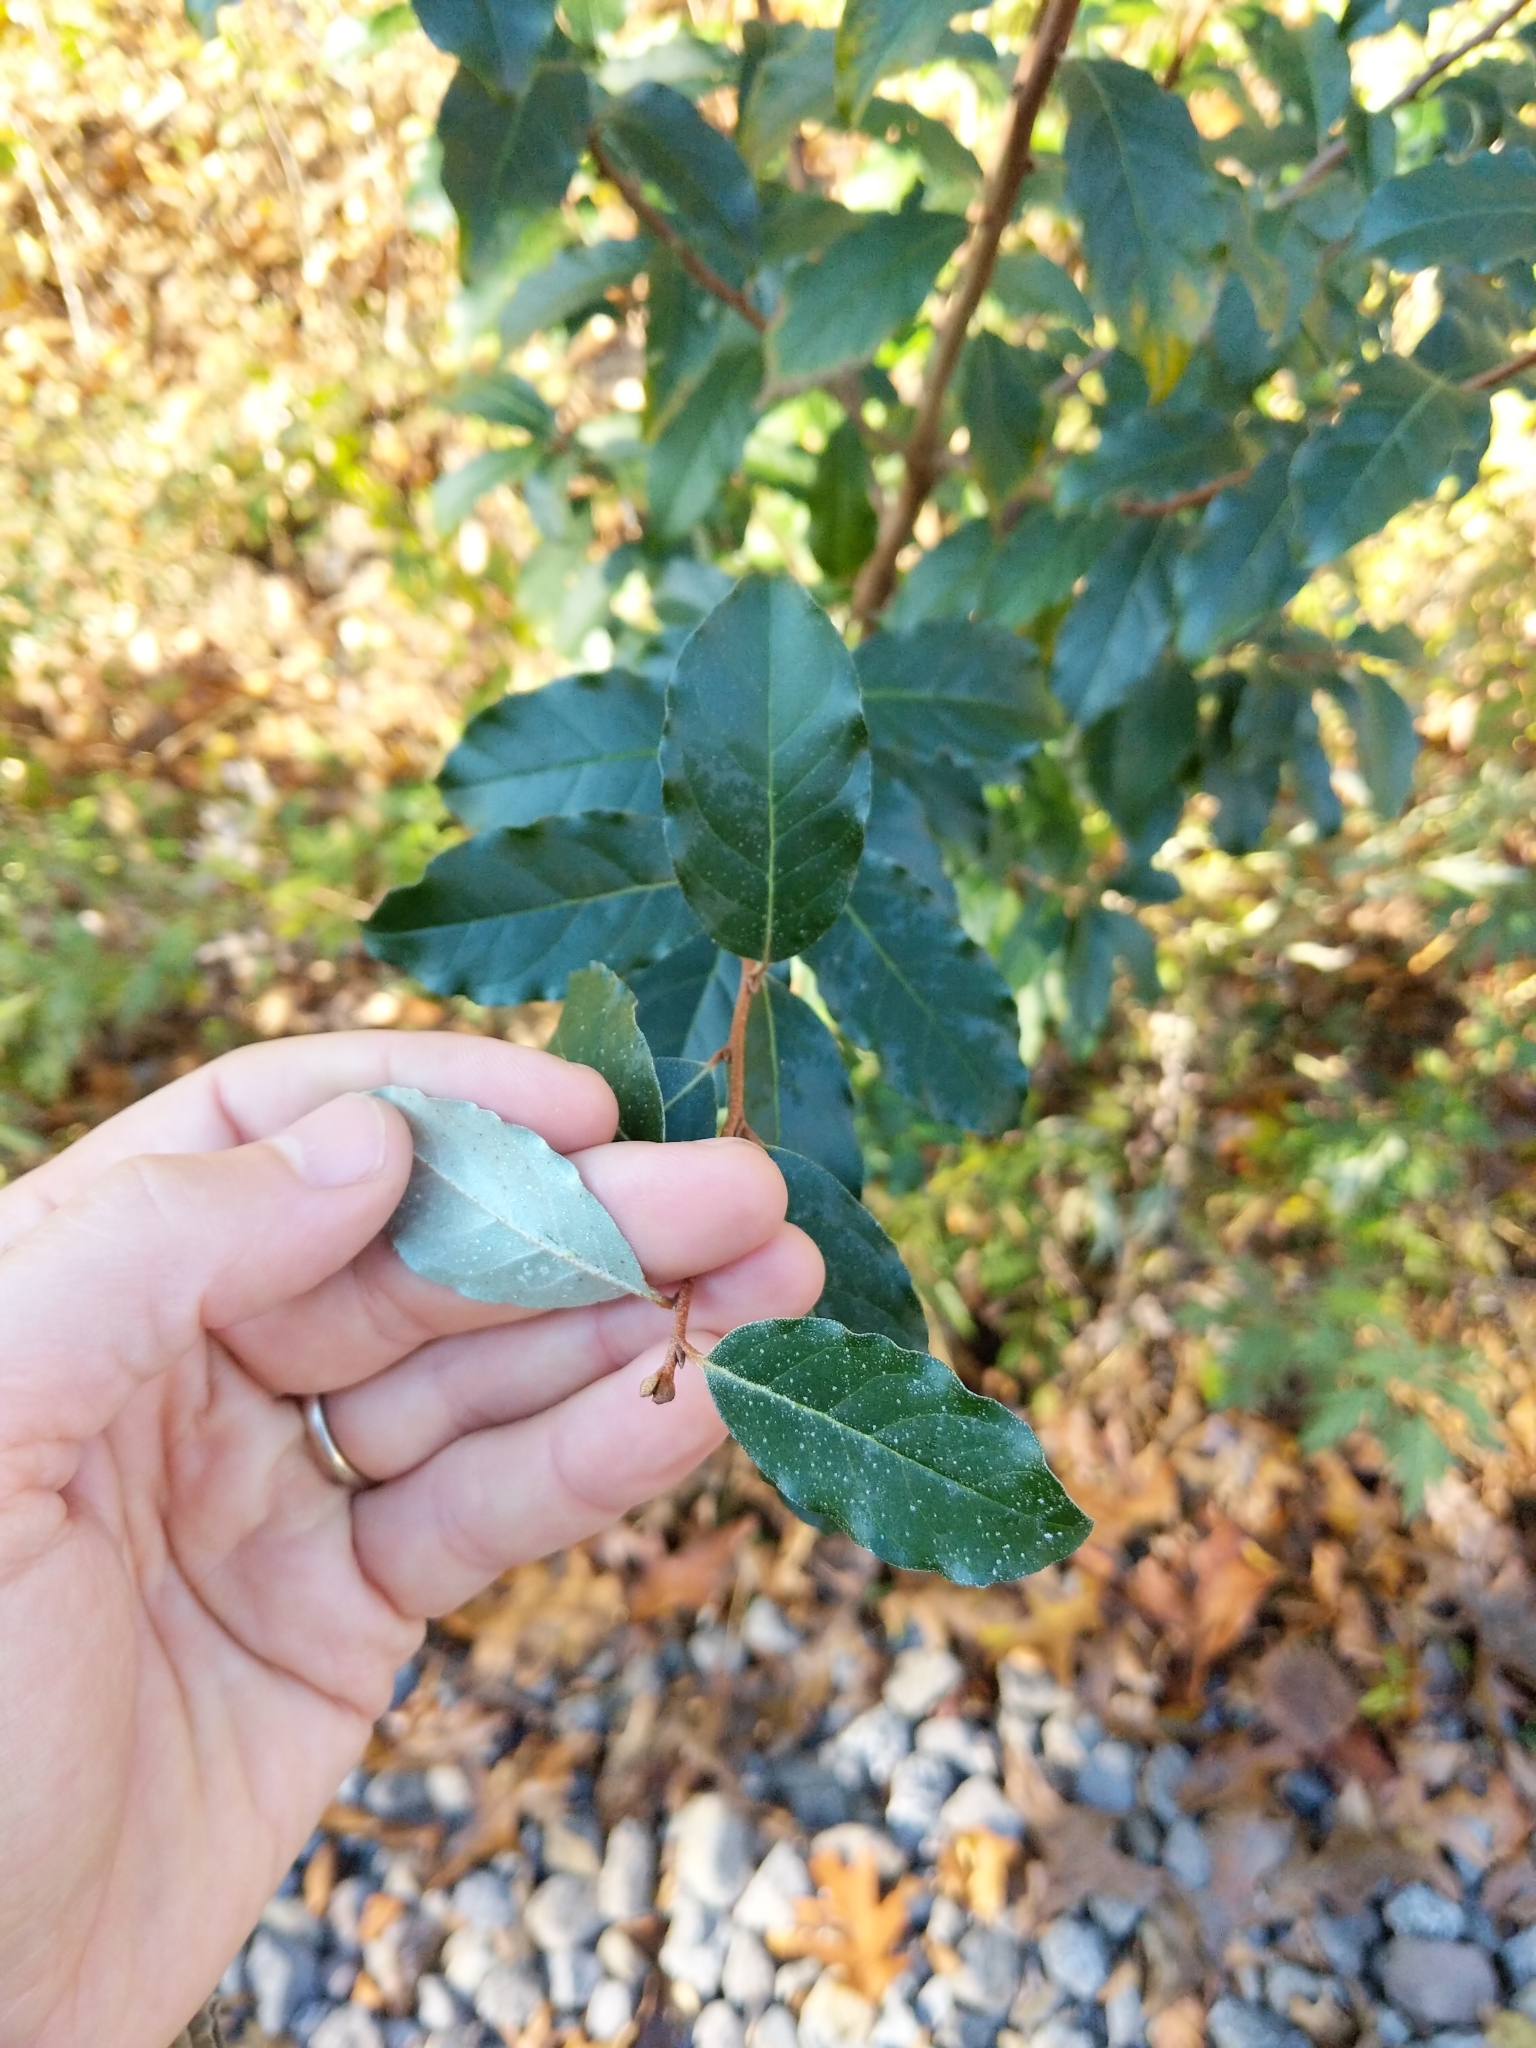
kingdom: Plantae
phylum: Tracheophyta
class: Magnoliopsida
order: Rosales
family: Elaeagnaceae
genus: Elaeagnus
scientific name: Elaeagnus umbellata
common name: Autumn olive
